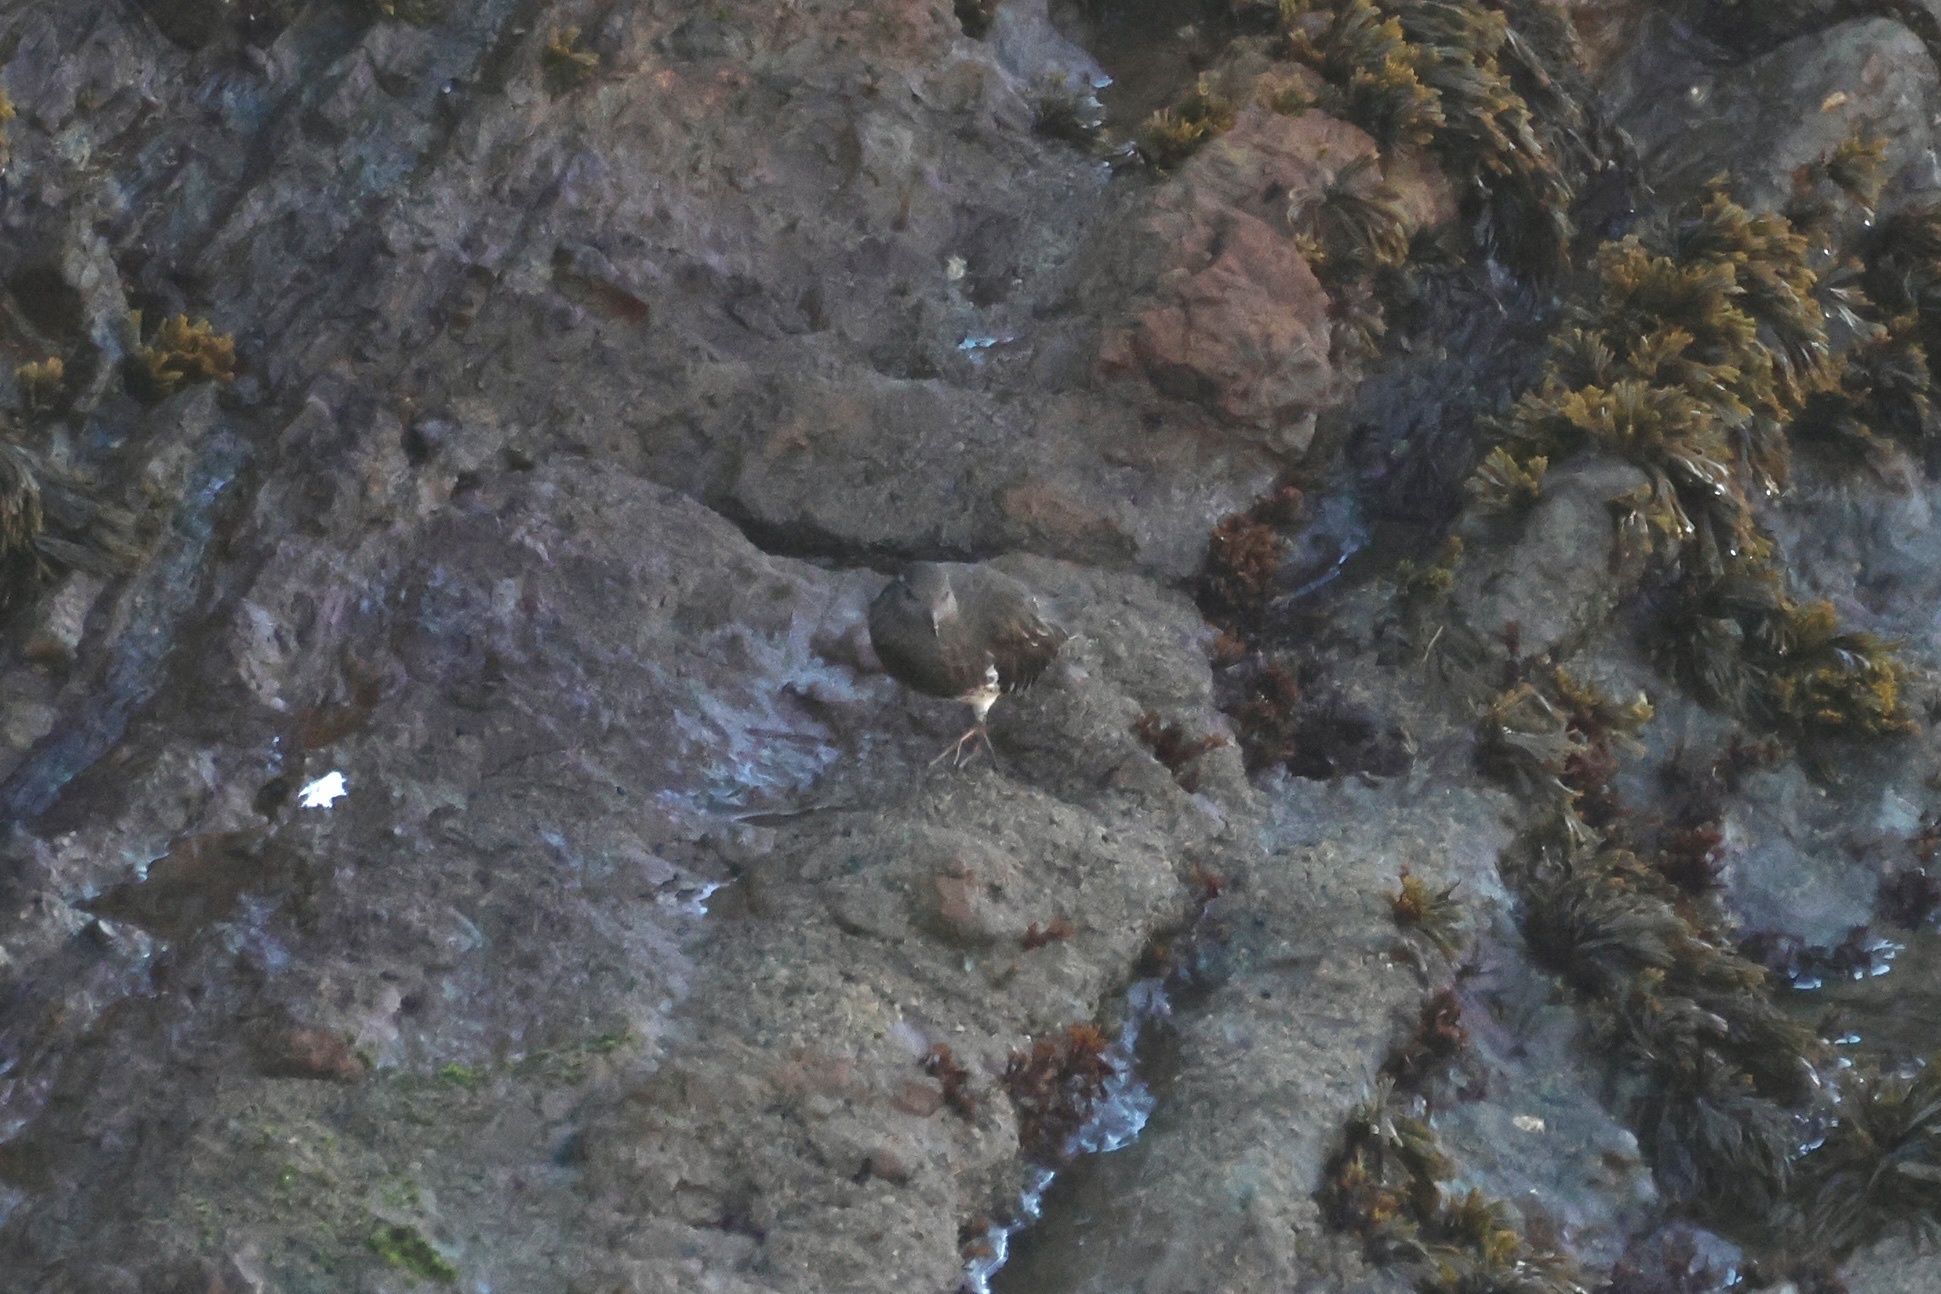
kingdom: Animalia
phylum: Chordata
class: Aves
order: Charadriiformes
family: Scolopacidae
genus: Arenaria
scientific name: Arenaria melanocephala
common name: Black turnstone
